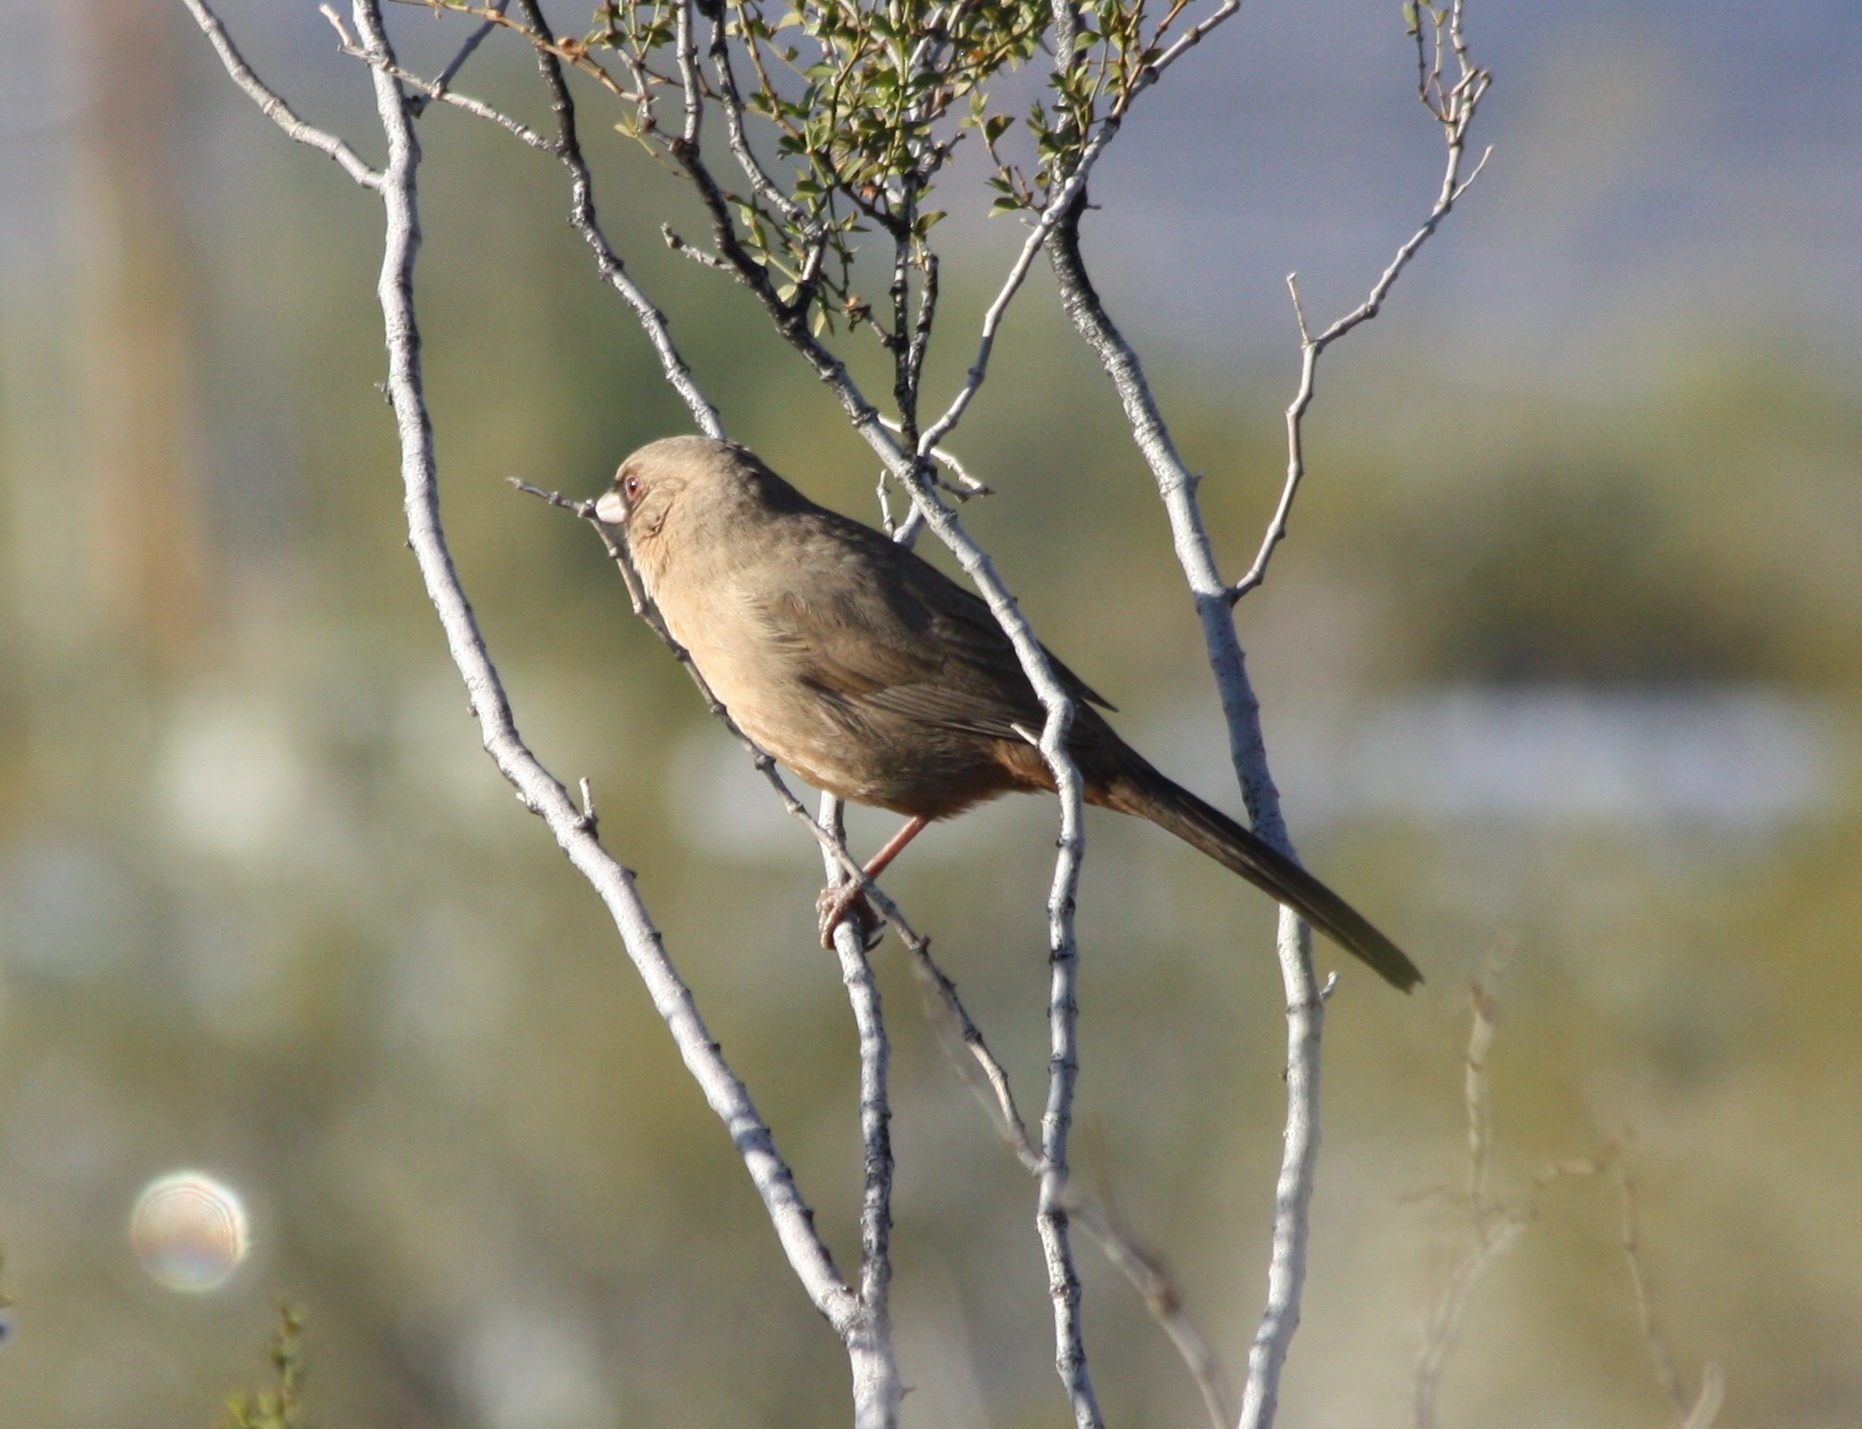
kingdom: Animalia
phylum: Chordata
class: Aves
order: Passeriformes
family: Passerellidae
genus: Melozone
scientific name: Melozone aberti
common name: Abert's towhee
